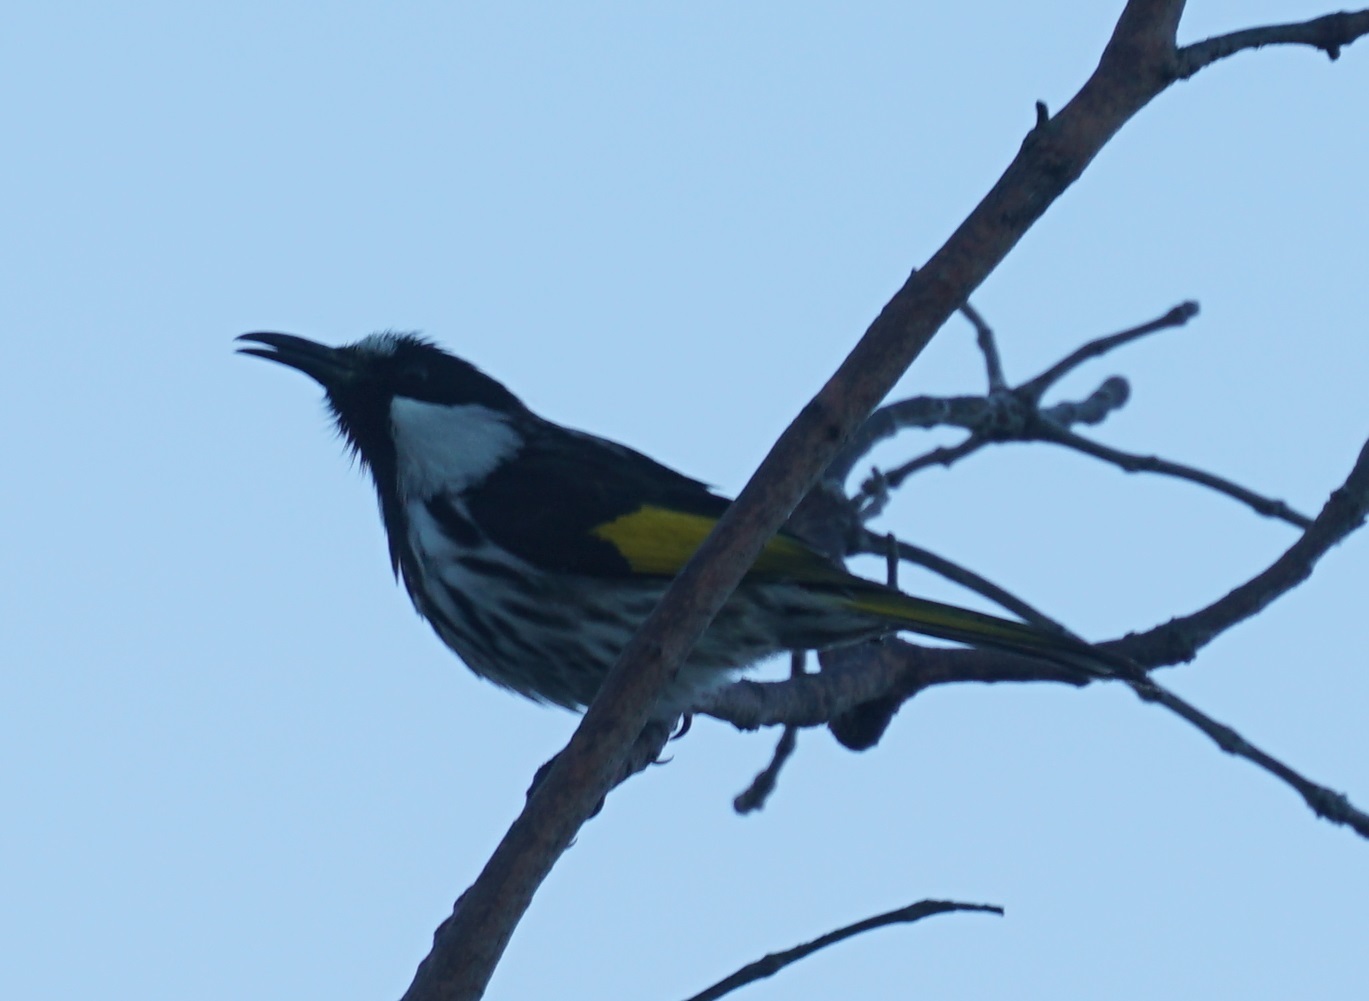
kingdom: Animalia
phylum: Chordata
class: Aves
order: Passeriformes
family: Meliphagidae
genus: Phylidonyris
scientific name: Phylidonyris niger
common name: White-cheeked honeyeater
